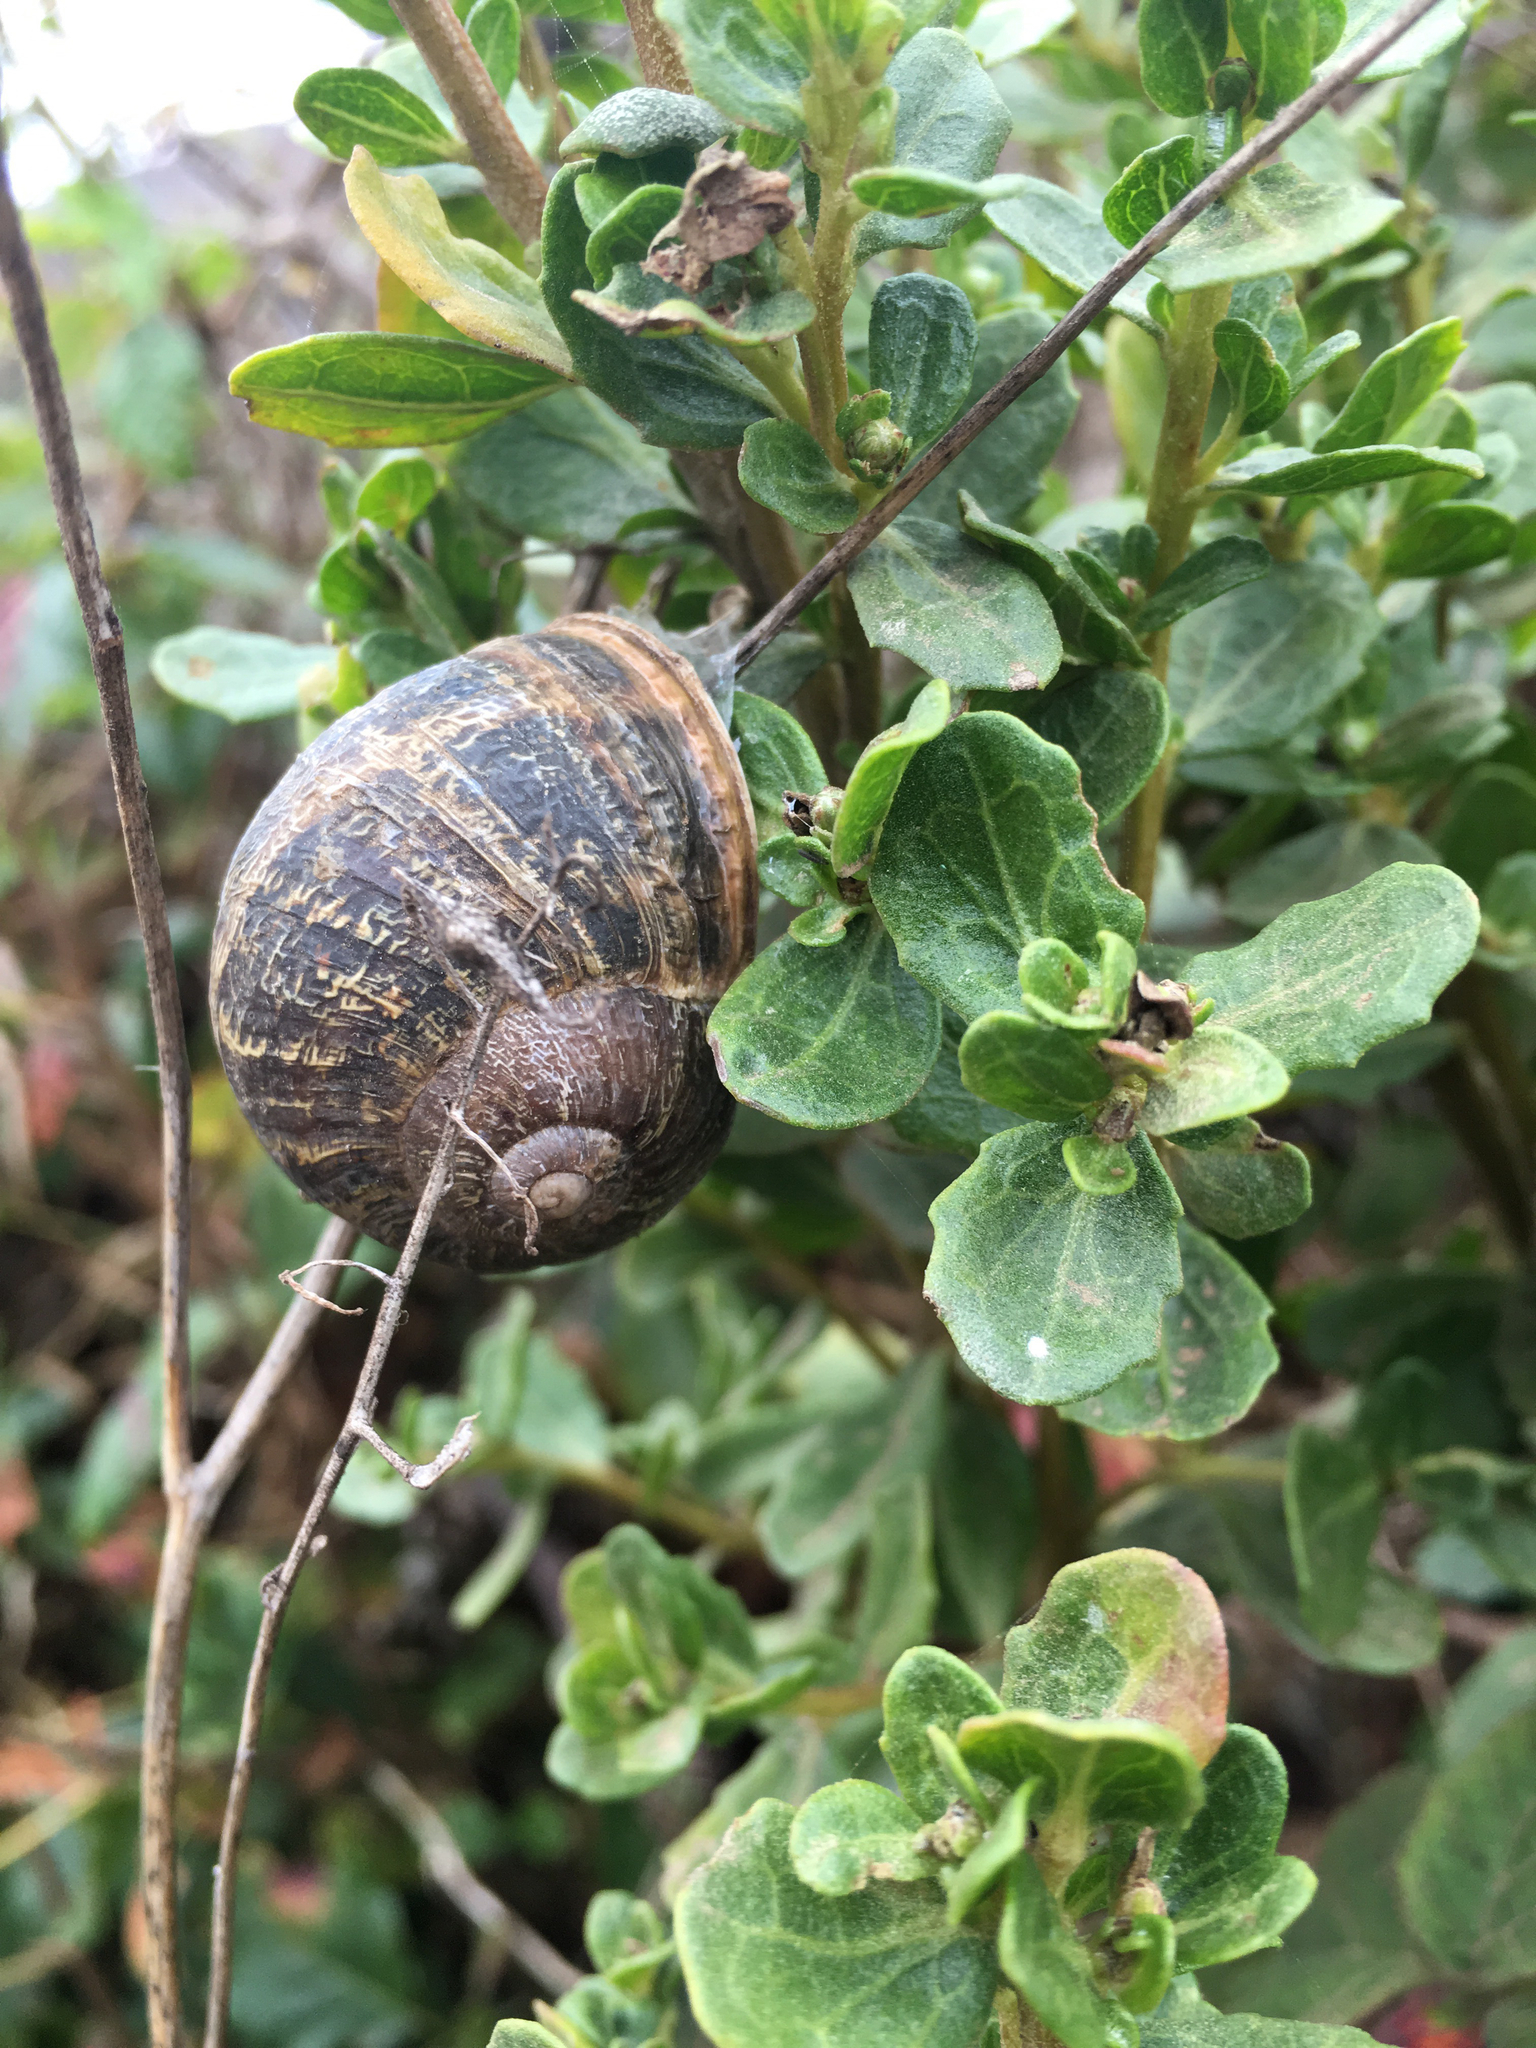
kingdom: Animalia
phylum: Mollusca
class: Gastropoda
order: Stylommatophora
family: Helicidae
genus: Cornu
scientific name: Cornu aspersum
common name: Brown garden snail
